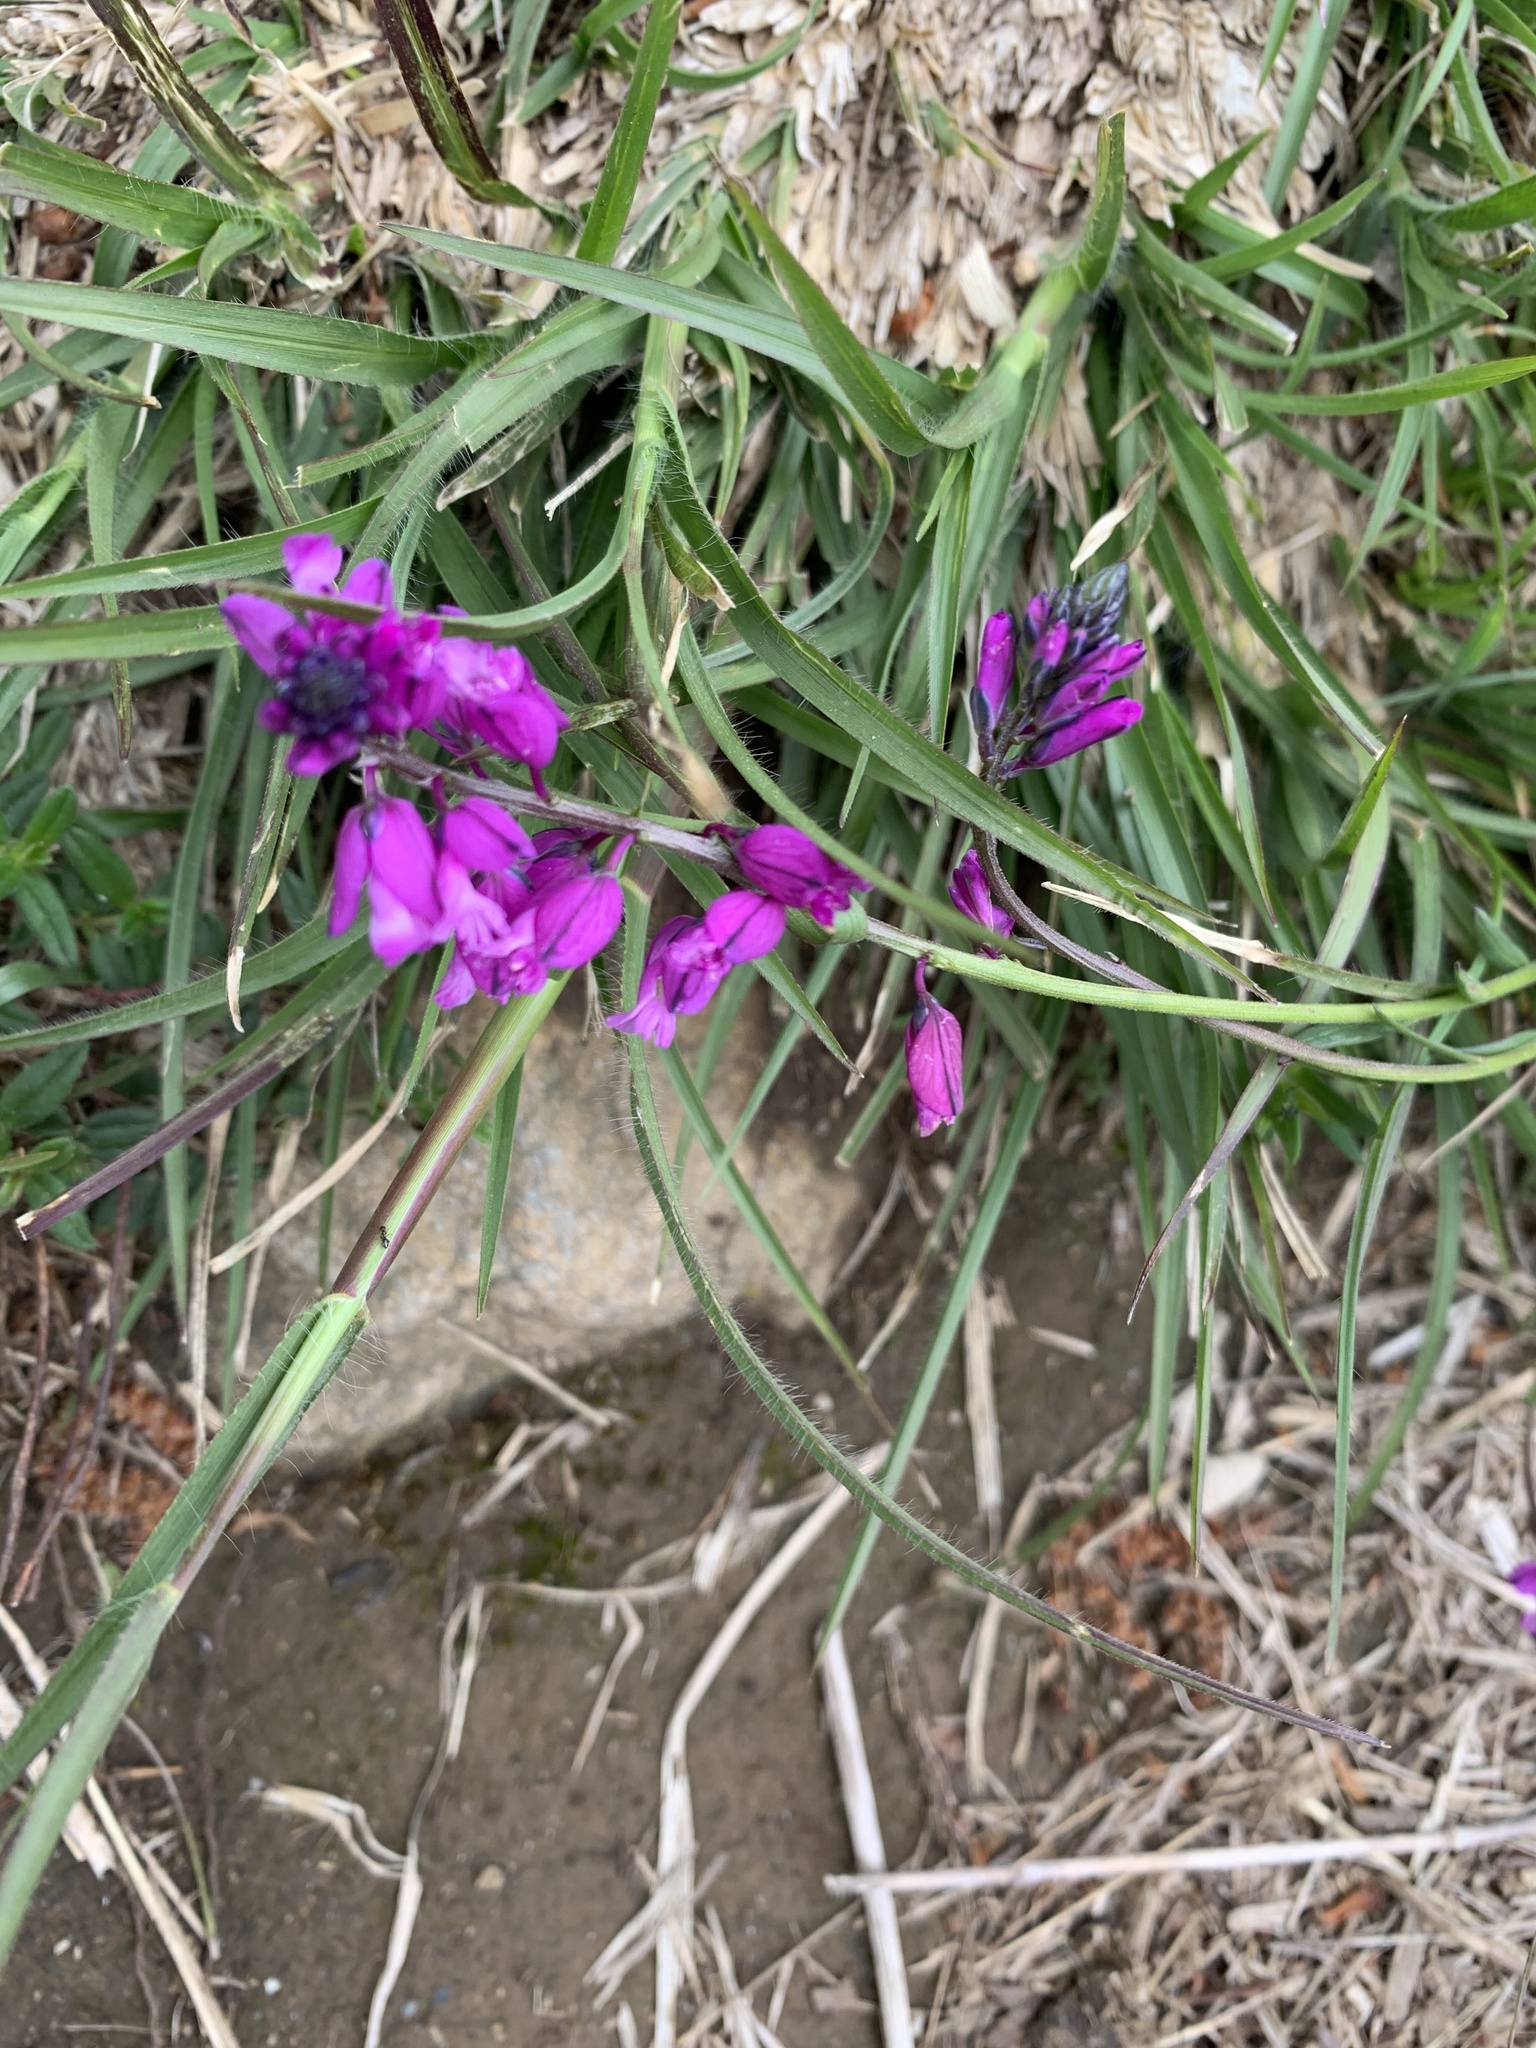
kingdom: Plantae
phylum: Tracheophyta
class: Magnoliopsida
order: Fabales
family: Polygalaceae
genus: Polygala
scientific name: Polygala nicaeensis
